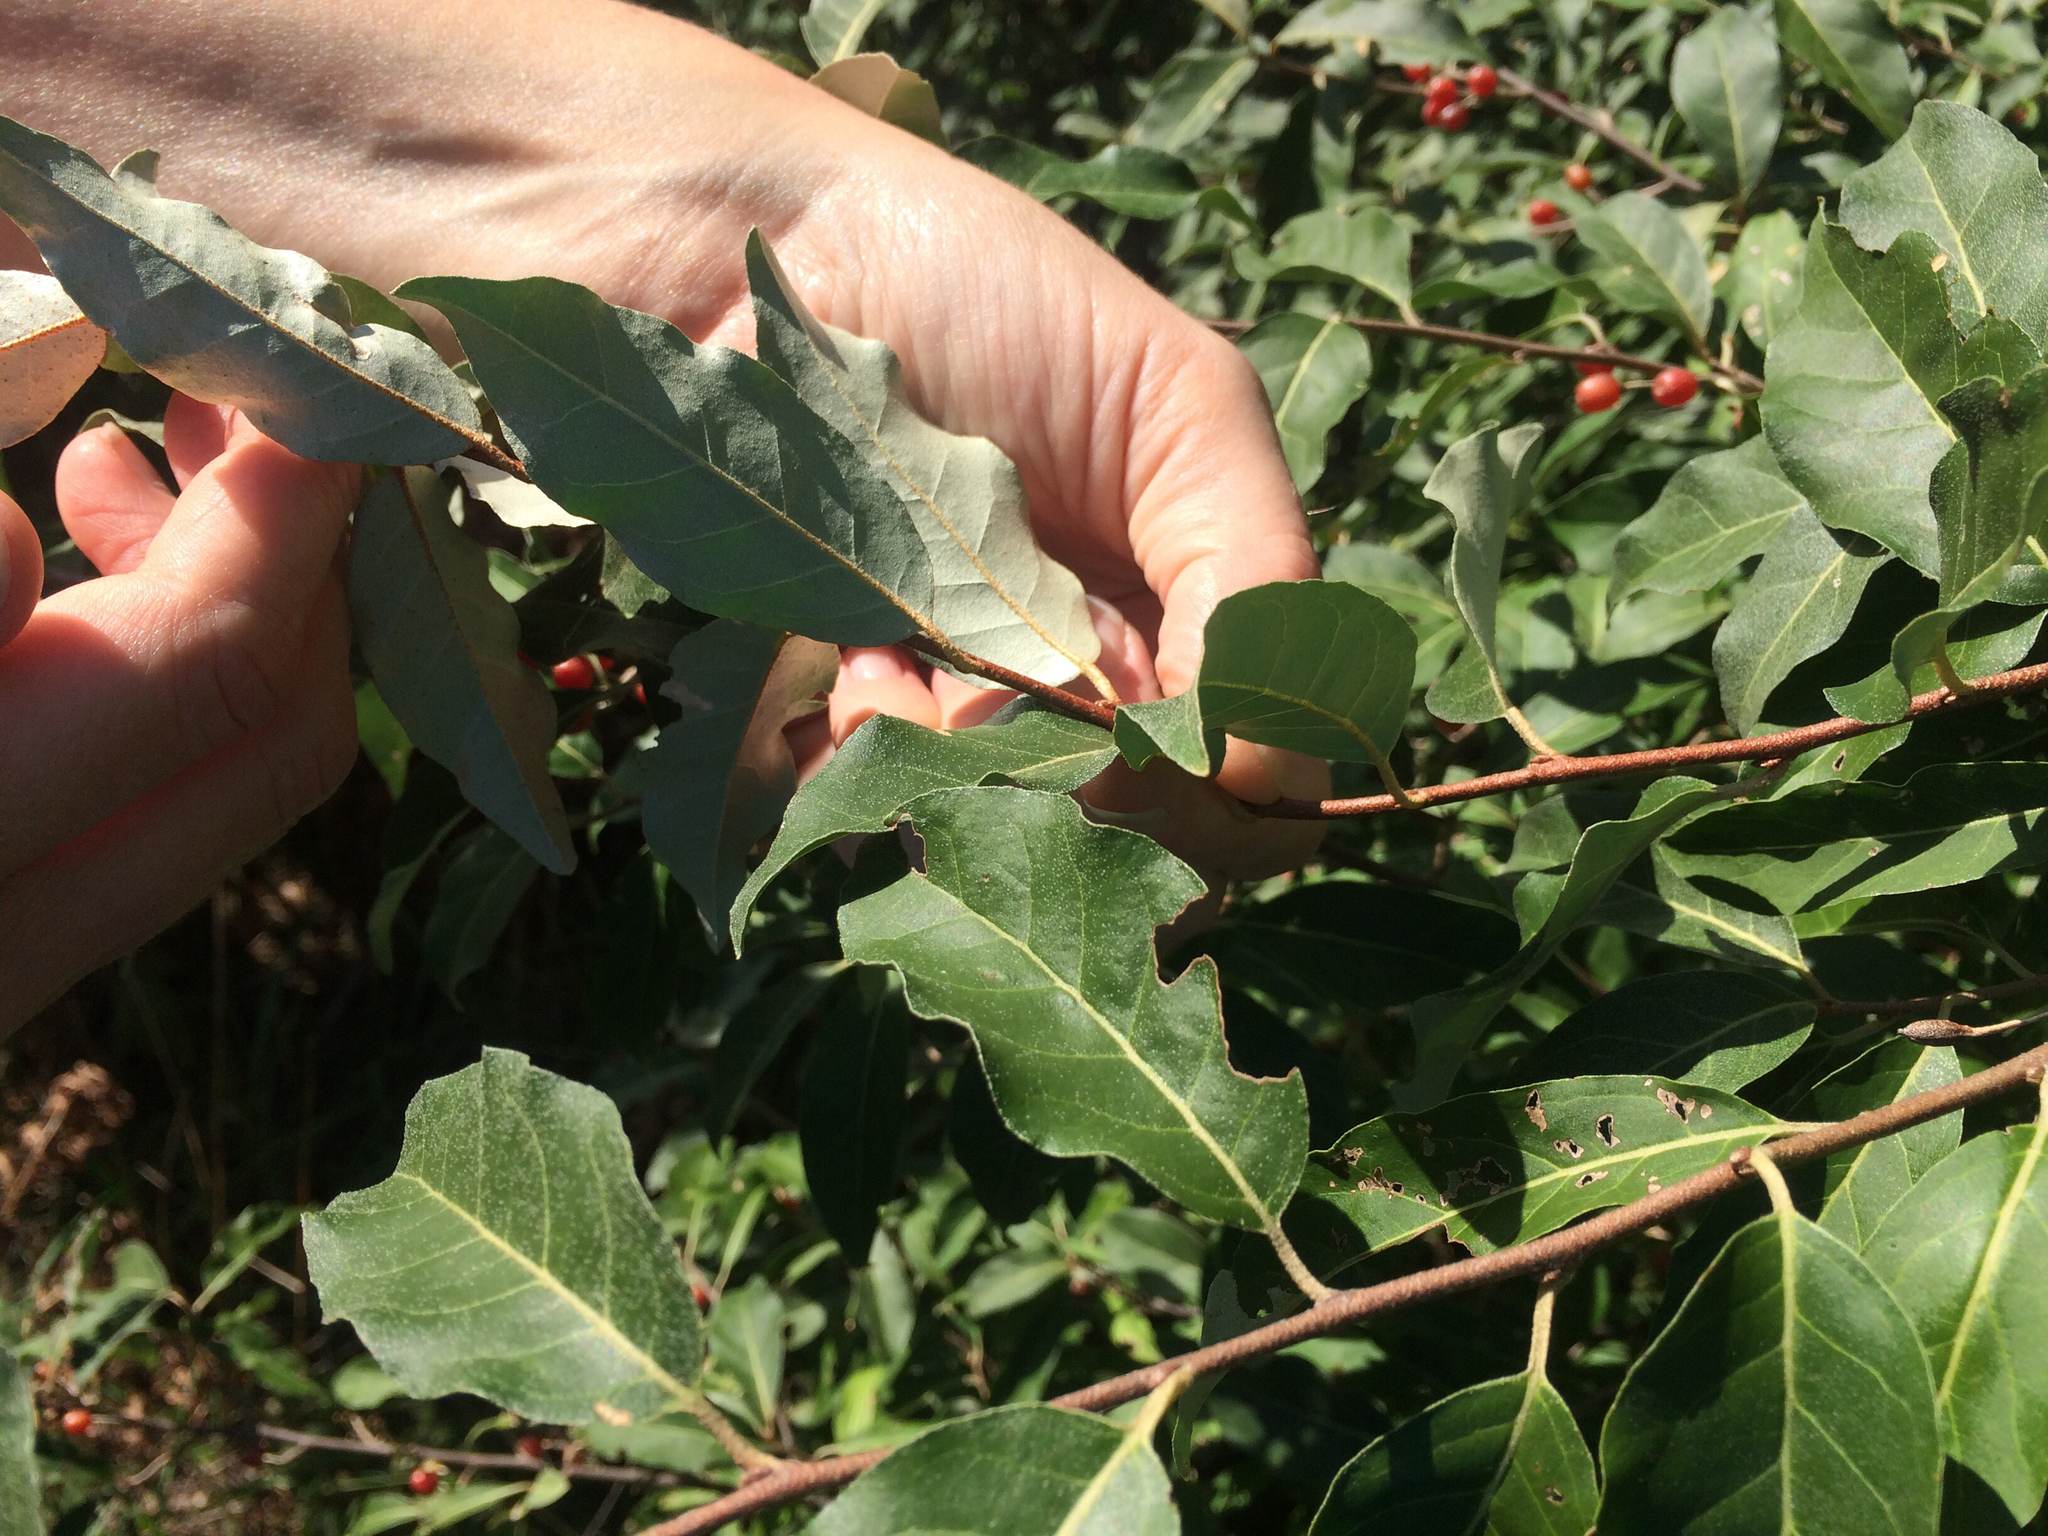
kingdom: Plantae
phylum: Tracheophyta
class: Magnoliopsida
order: Rosales
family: Elaeagnaceae
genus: Elaeagnus
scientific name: Elaeagnus umbellata
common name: Autumn olive
